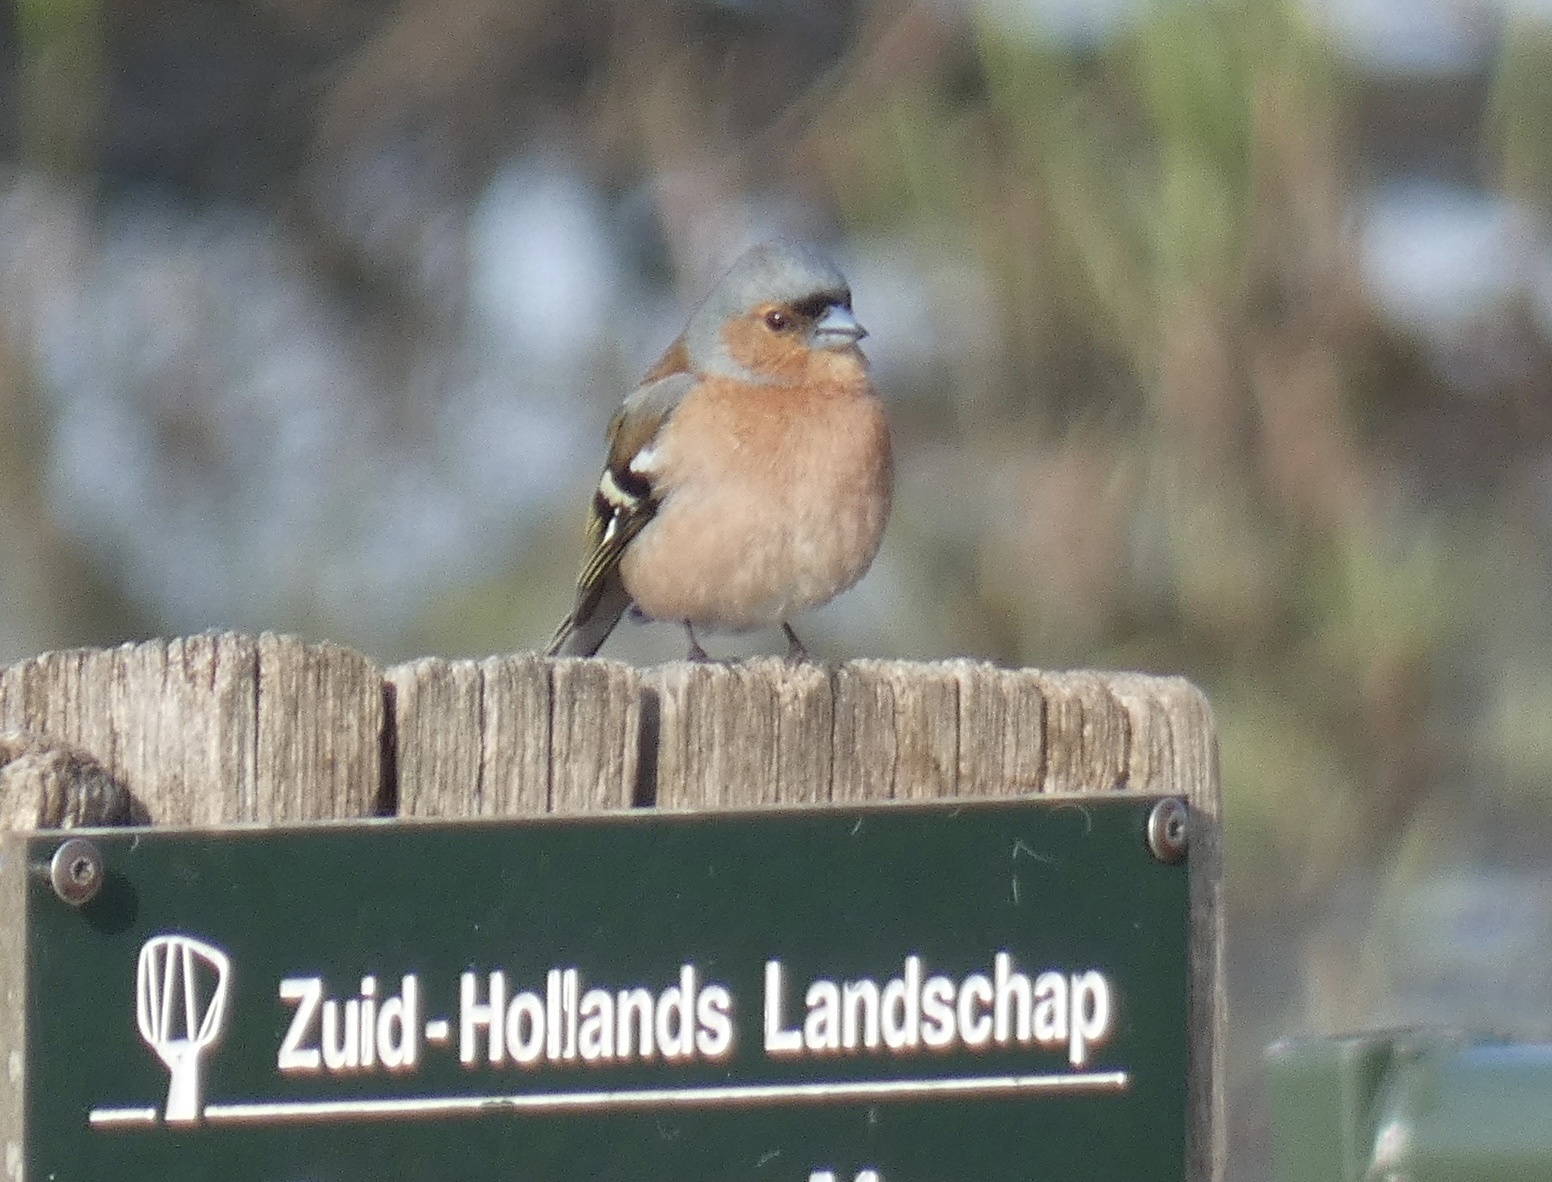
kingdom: Animalia
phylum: Chordata
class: Aves
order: Passeriformes
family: Fringillidae
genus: Fringilla
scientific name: Fringilla coelebs
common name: Common chaffinch
